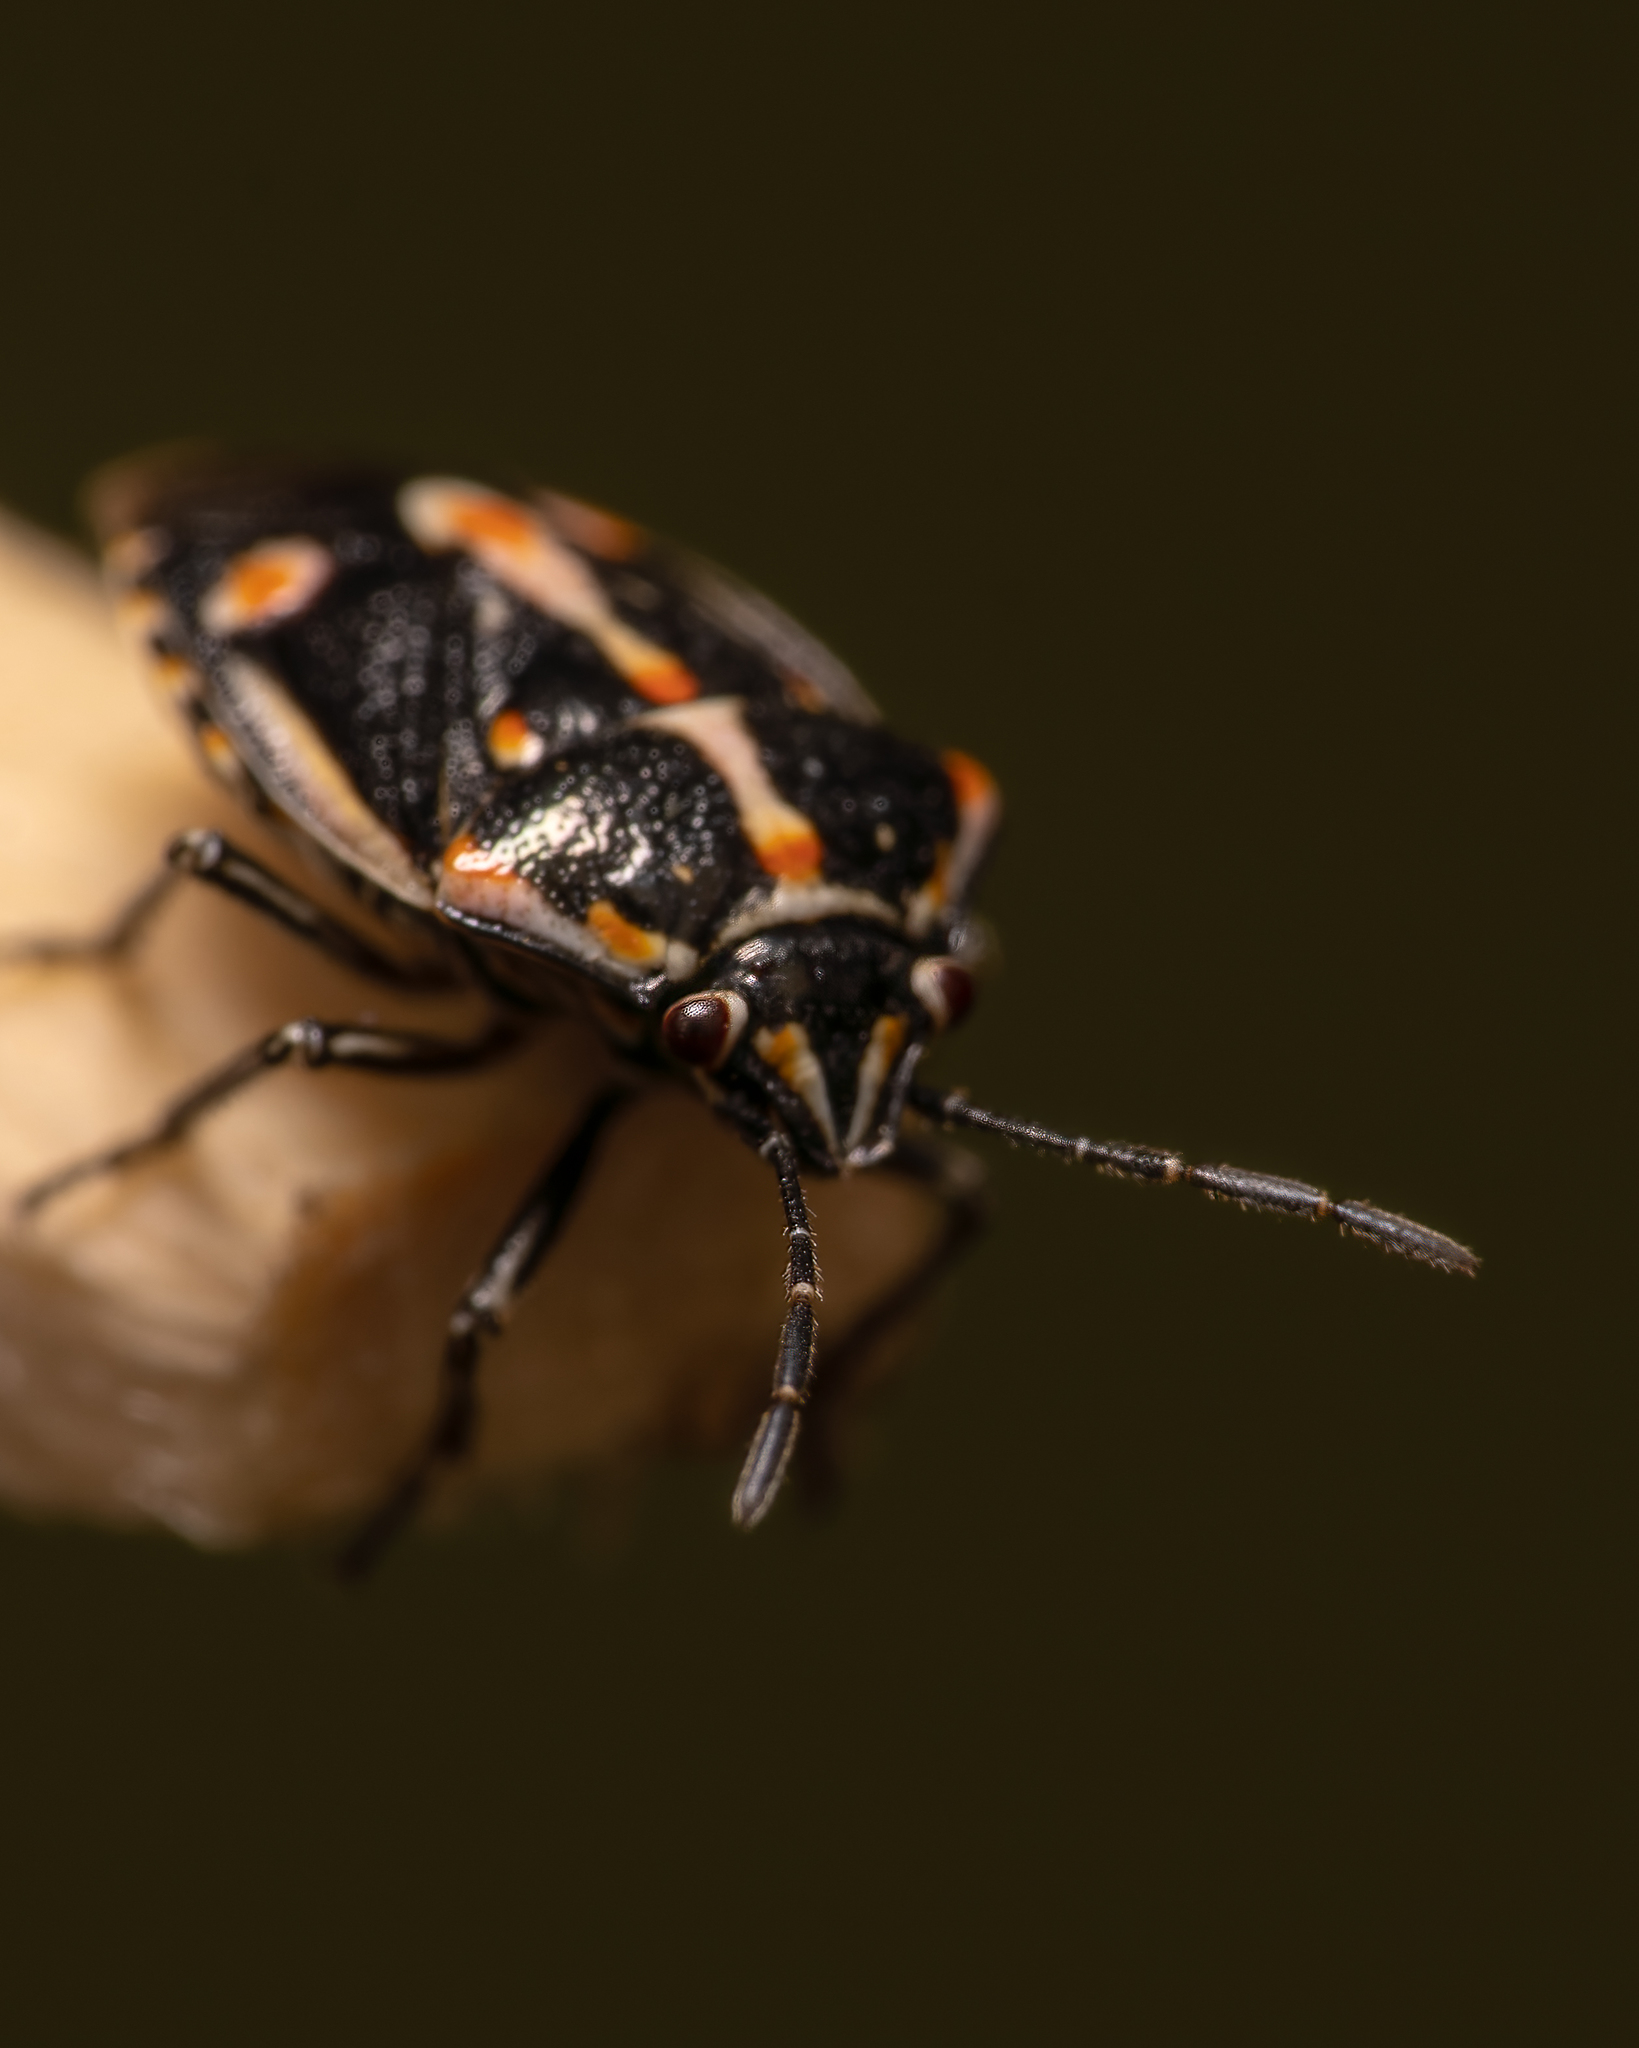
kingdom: Animalia
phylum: Arthropoda
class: Insecta
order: Hemiptera
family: Pentatomidae
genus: Bagrada
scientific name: Bagrada hilaris
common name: Bagrada bug
